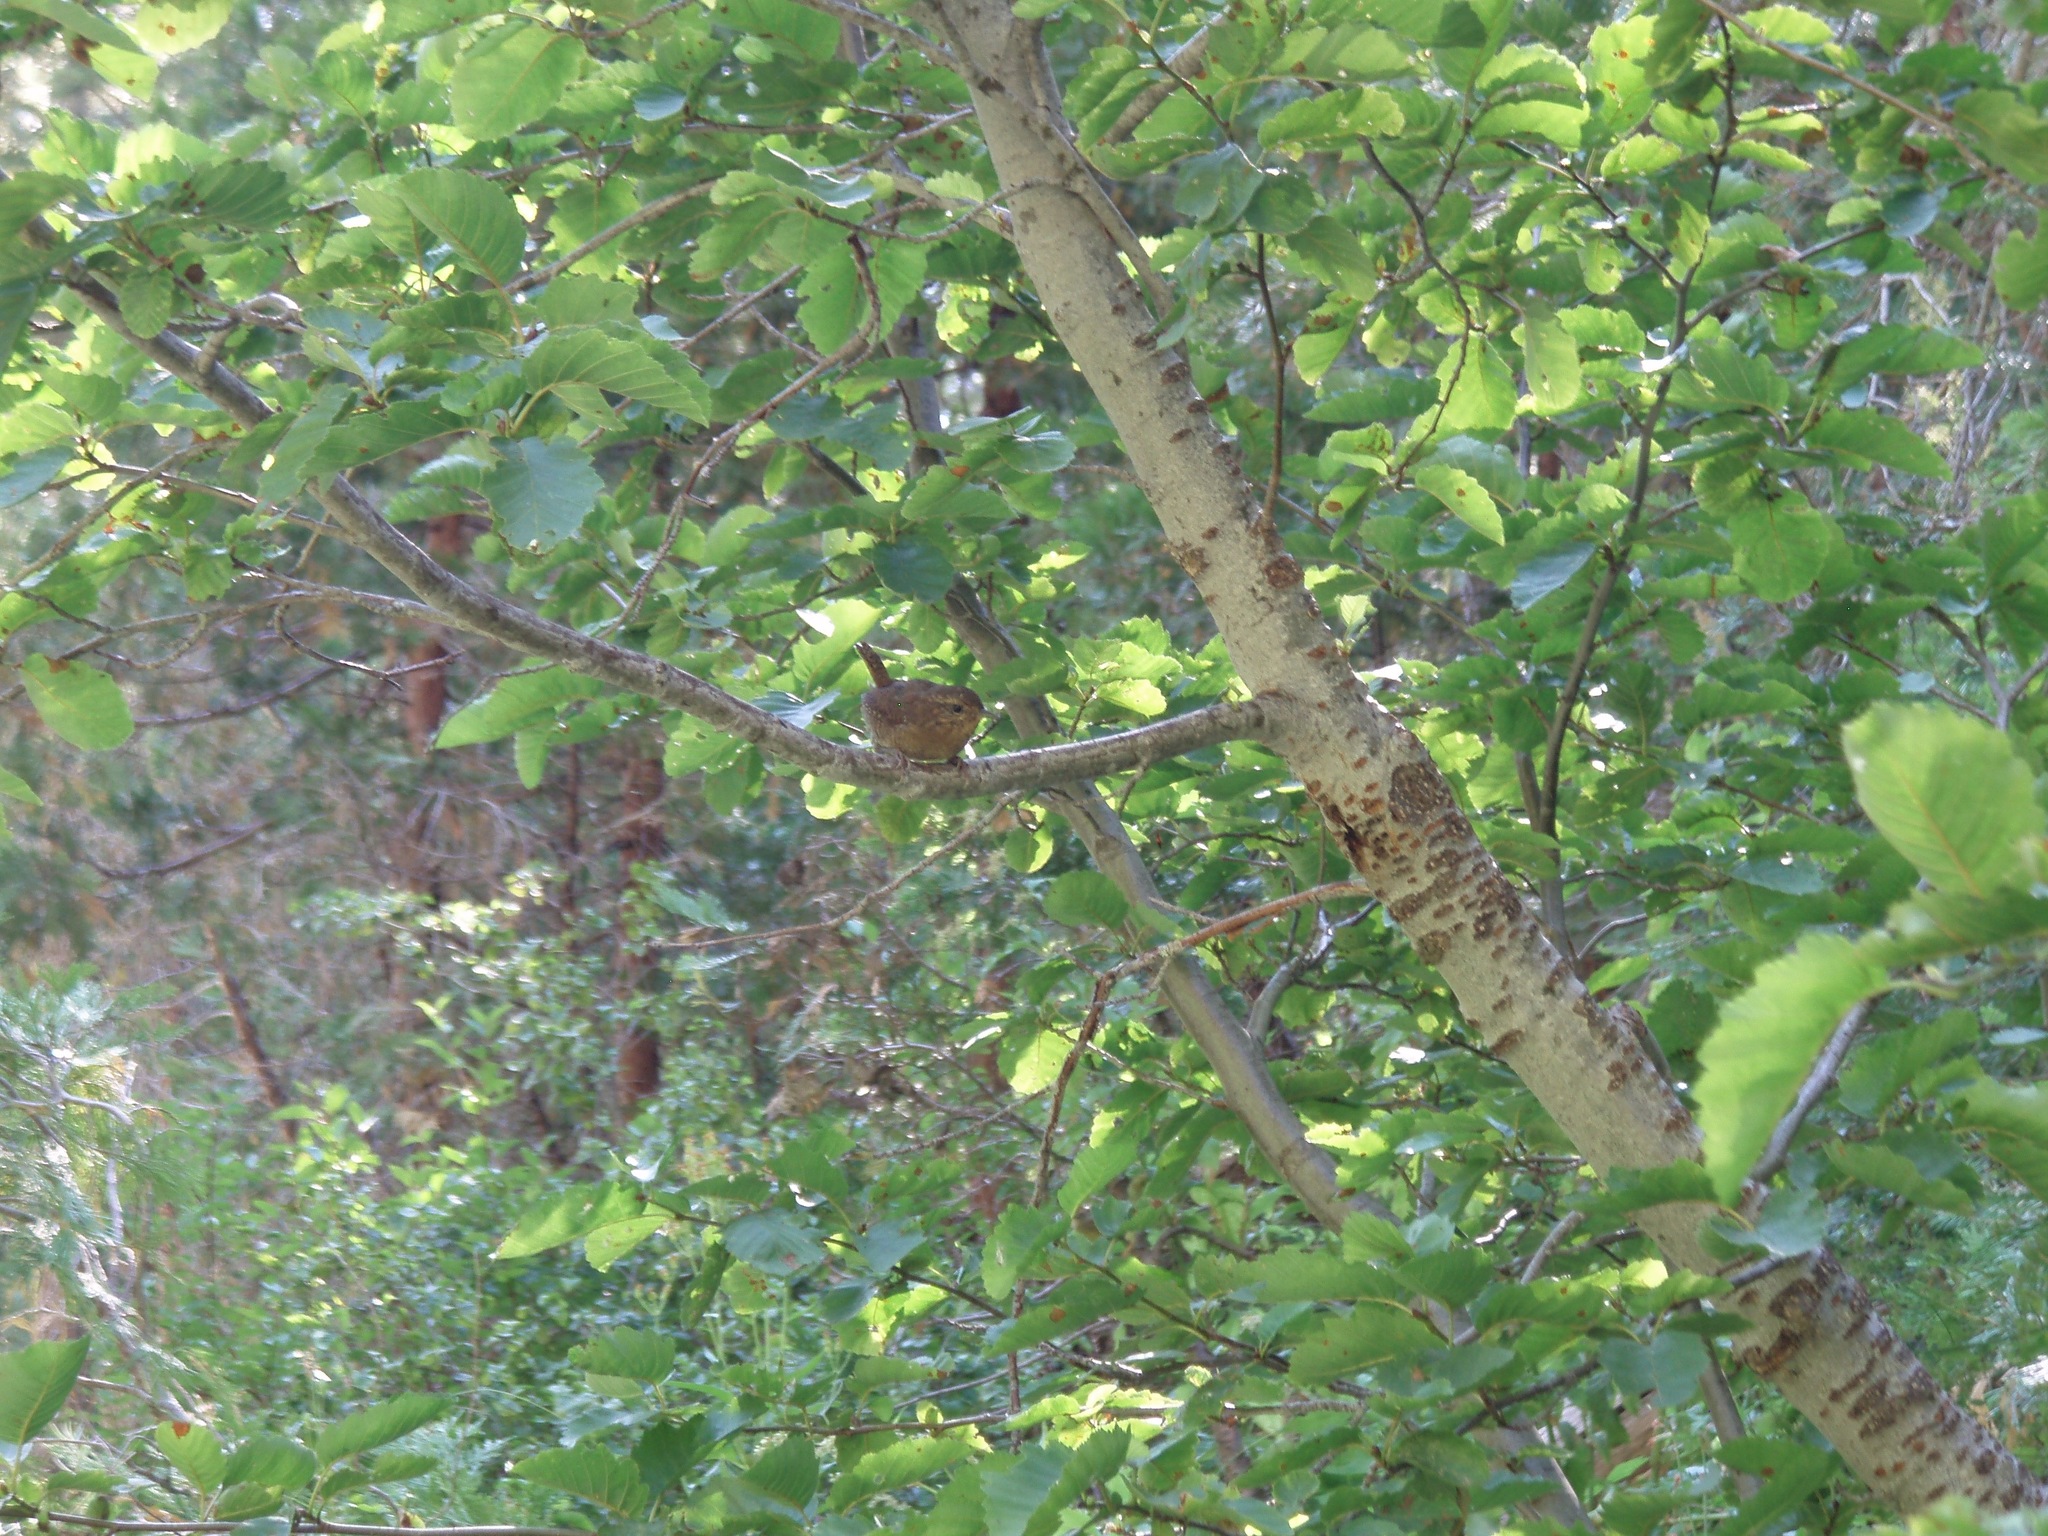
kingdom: Animalia
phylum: Chordata
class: Aves
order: Passeriformes
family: Troglodytidae
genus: Troglodytes
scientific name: Troglodytes pacificus
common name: Pacific wren
